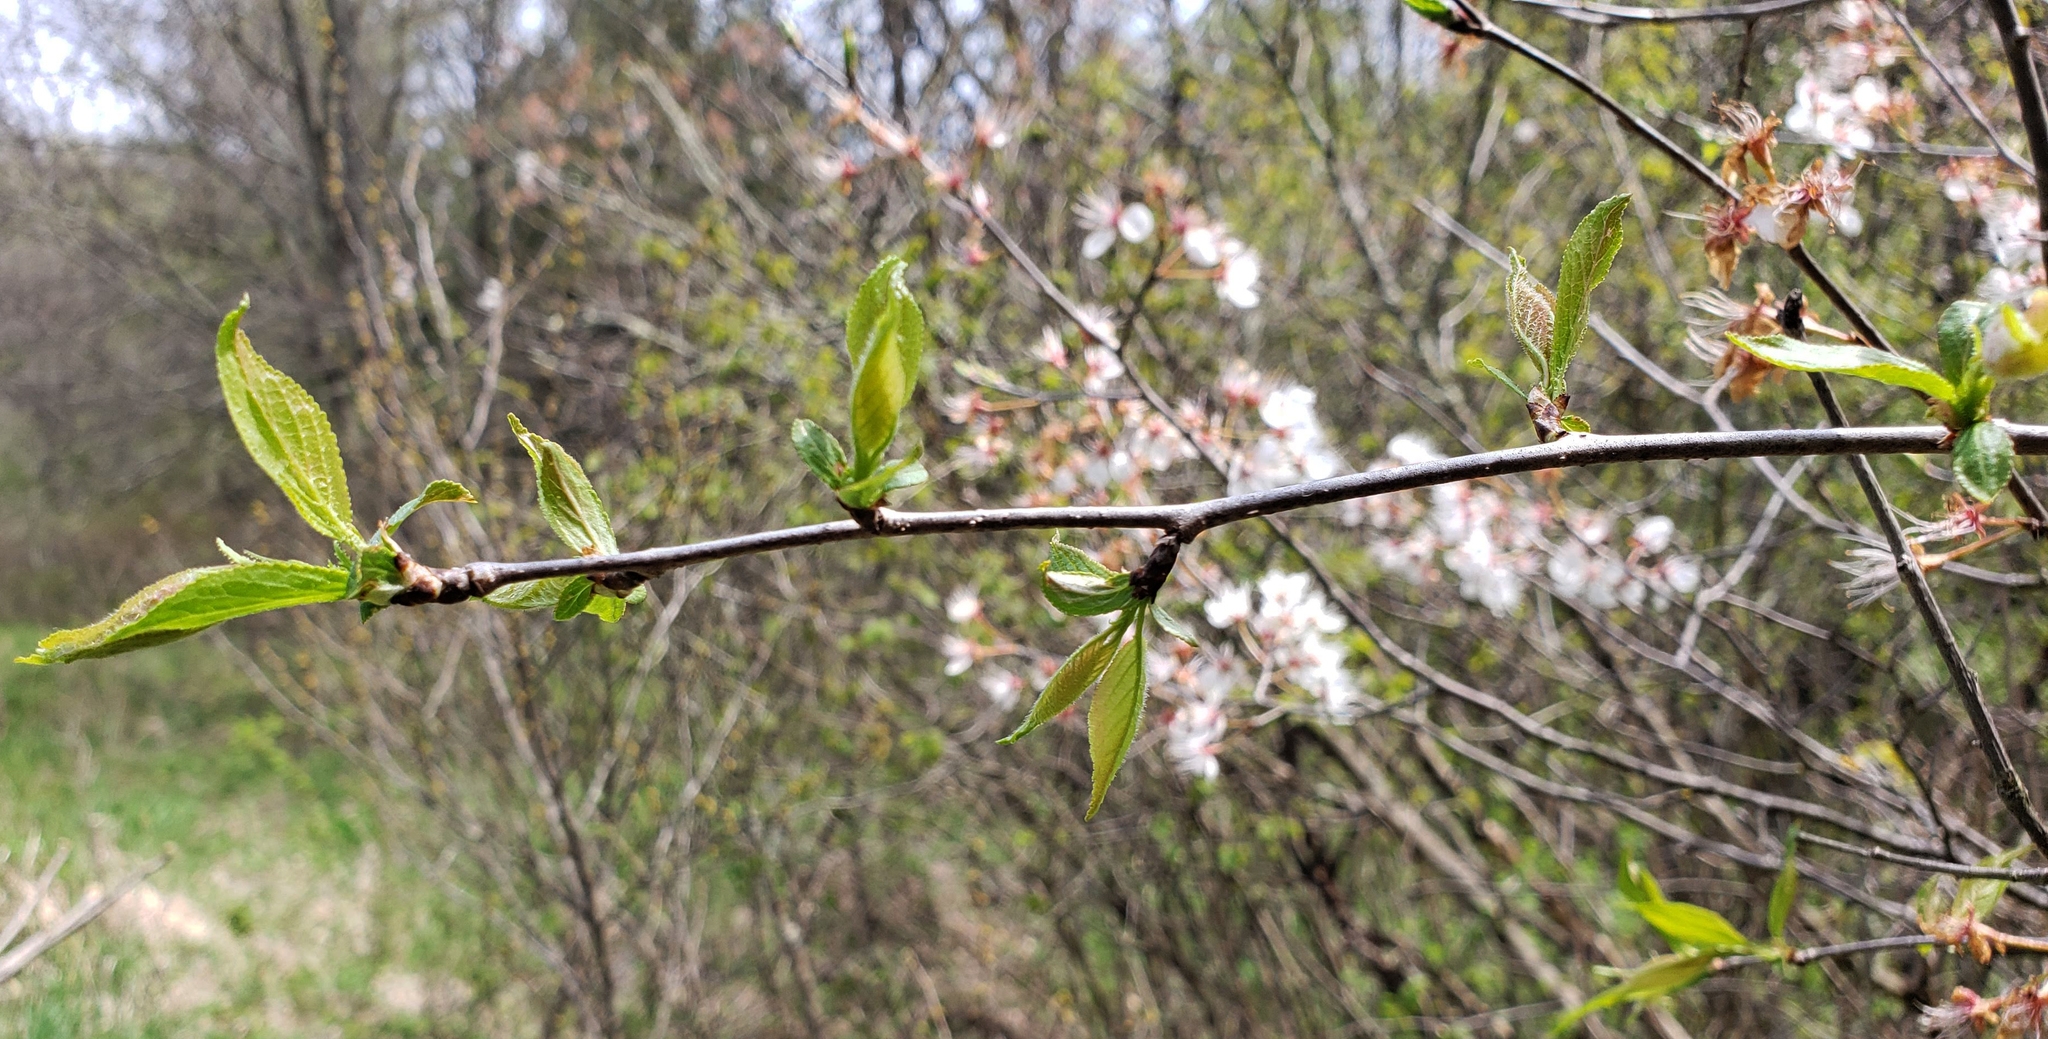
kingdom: Plantae
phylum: Tracheophyta
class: Magnoliopsida
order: Rosales
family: Rosaceae
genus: Prunus
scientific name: Prunus nigra
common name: Black plum
